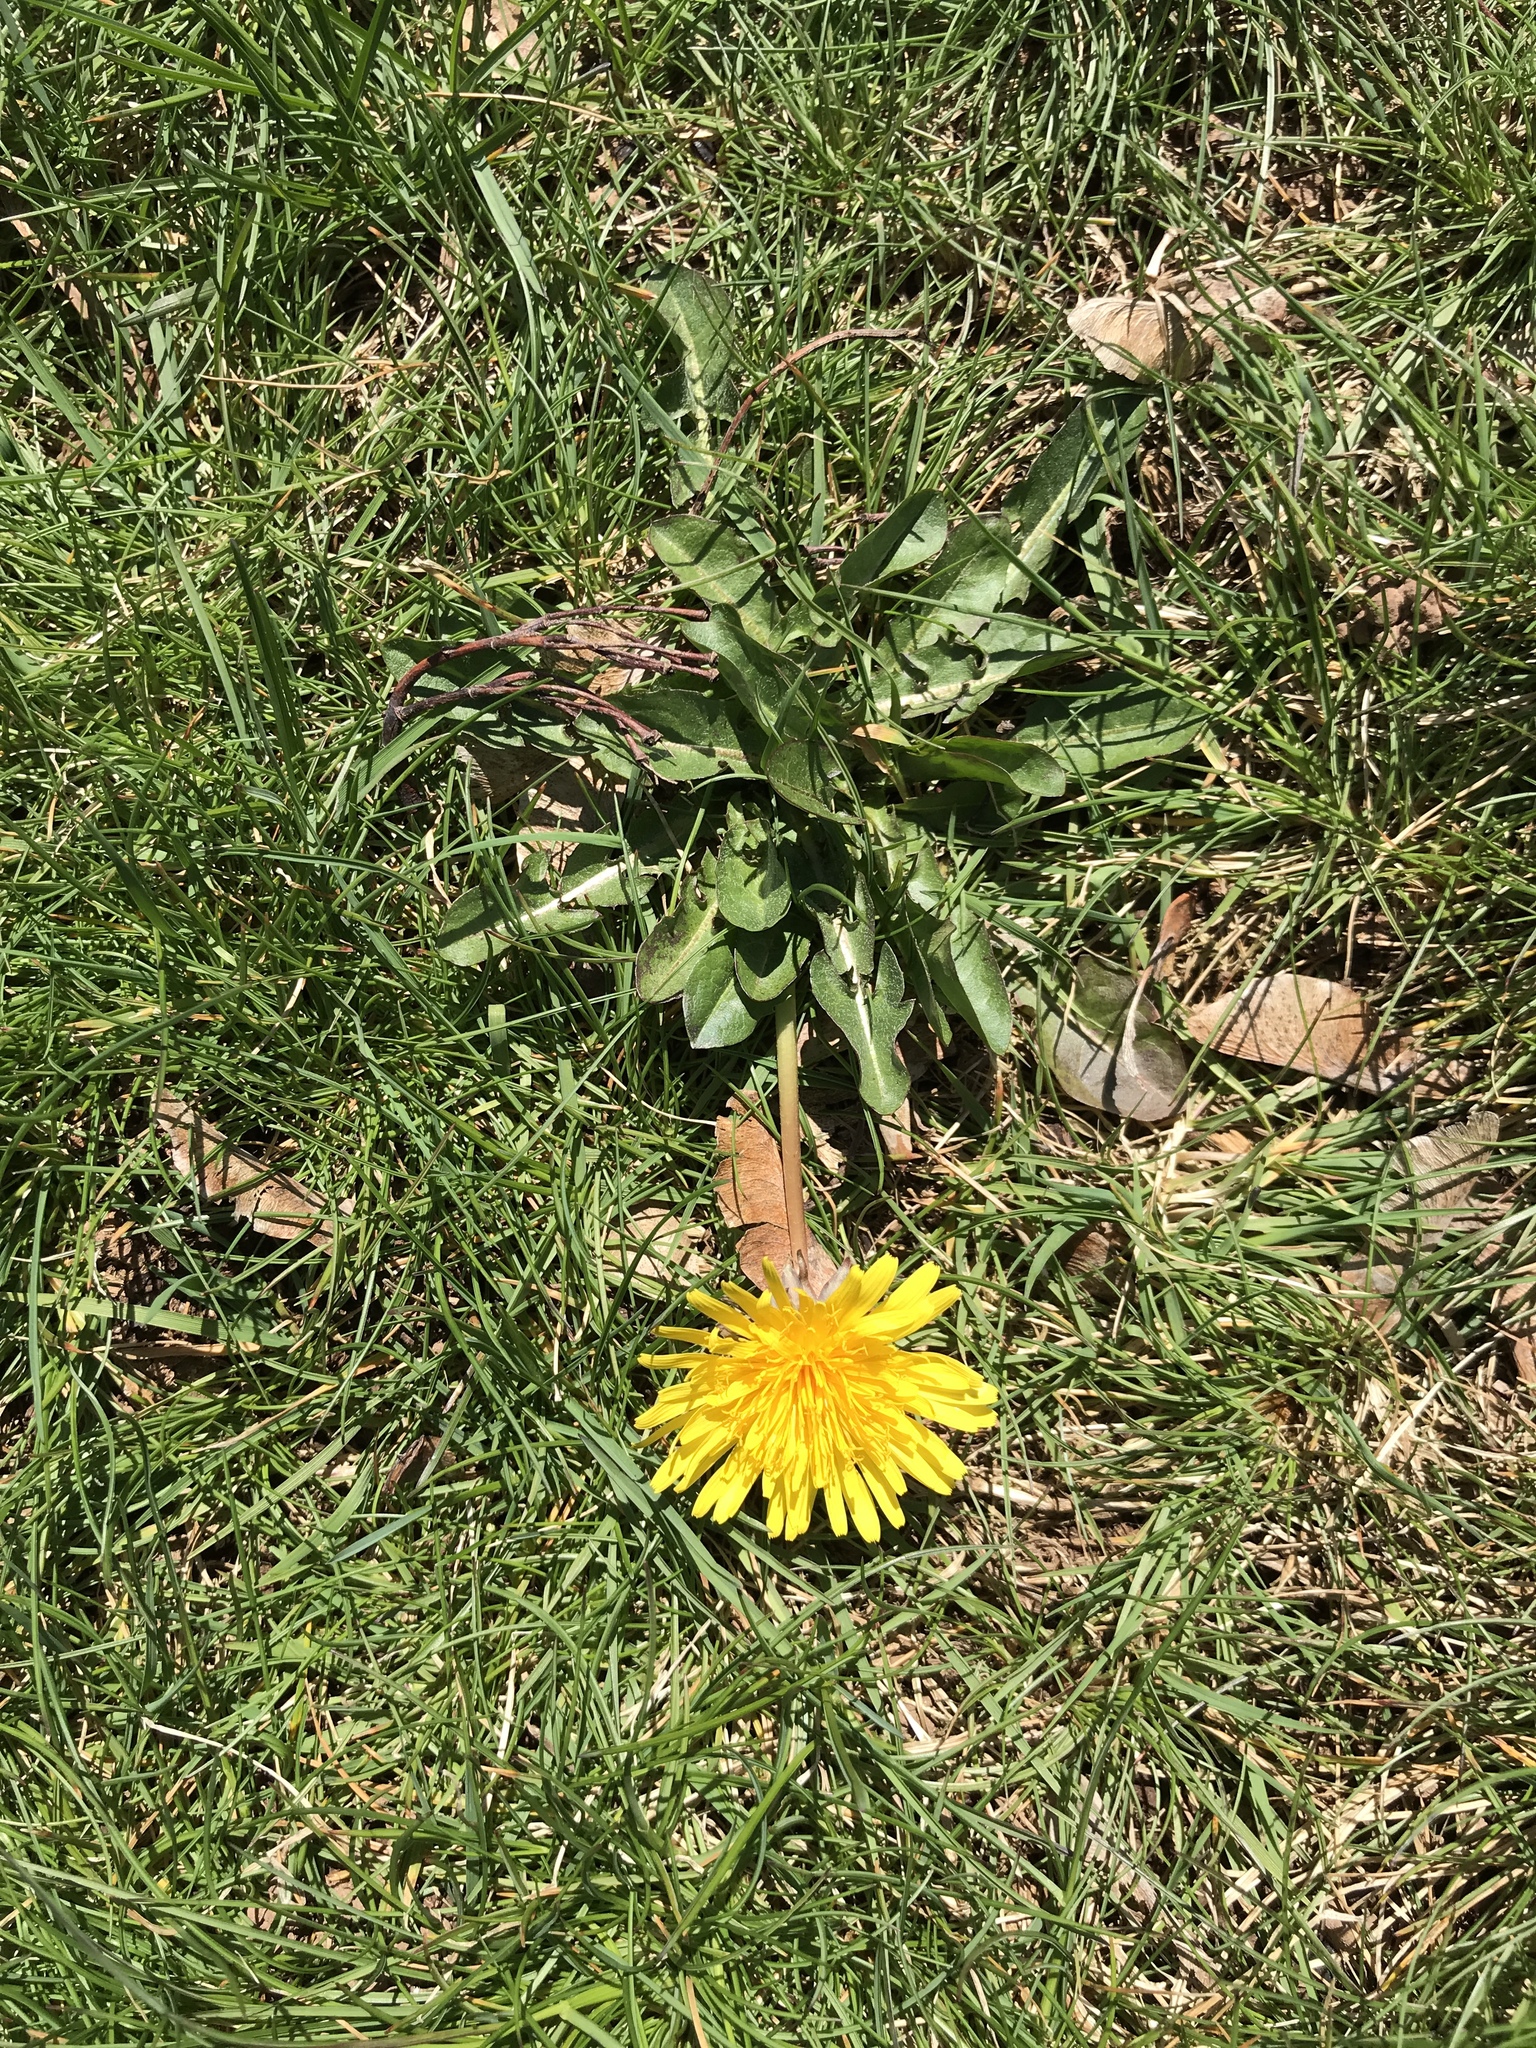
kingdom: Plantae
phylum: Tracheophyta
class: Magnoliopsida
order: Asterales
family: Asteraceae
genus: Taraxacum
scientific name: Taraxacum officinale
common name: Common dandelion
